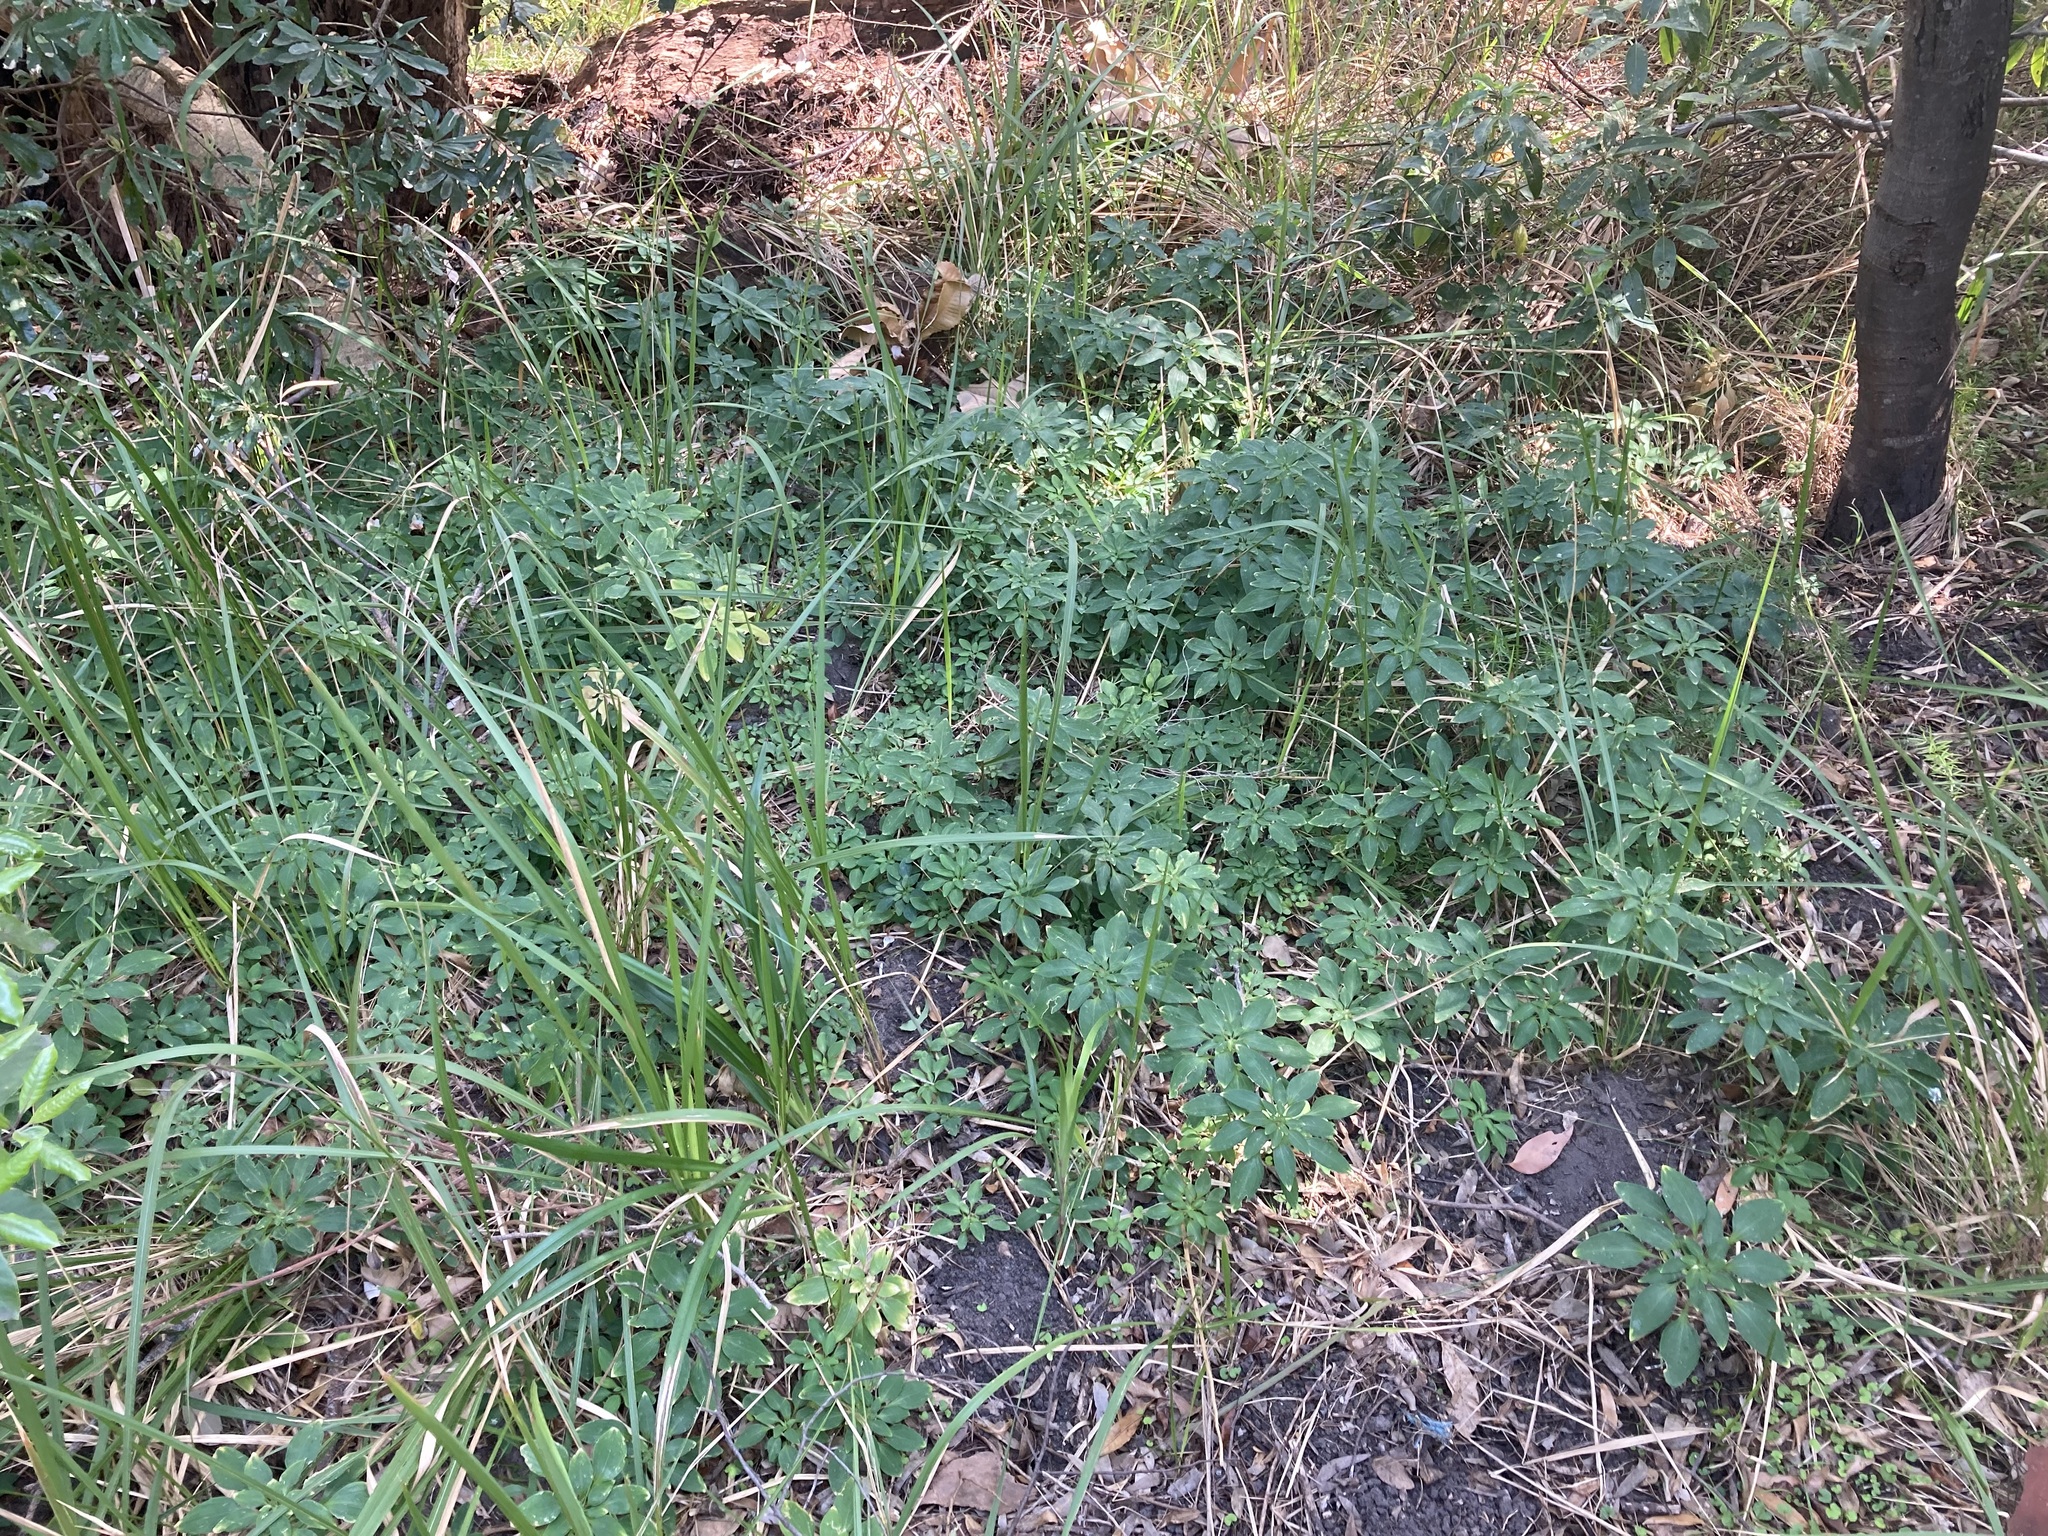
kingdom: Plantae
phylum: Tracheophyta
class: Liliopsida
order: Liliales
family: Alstroemeriaceae
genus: Alstroemeria
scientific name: Alstroemeria psittacina
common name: Peruvian-lily
